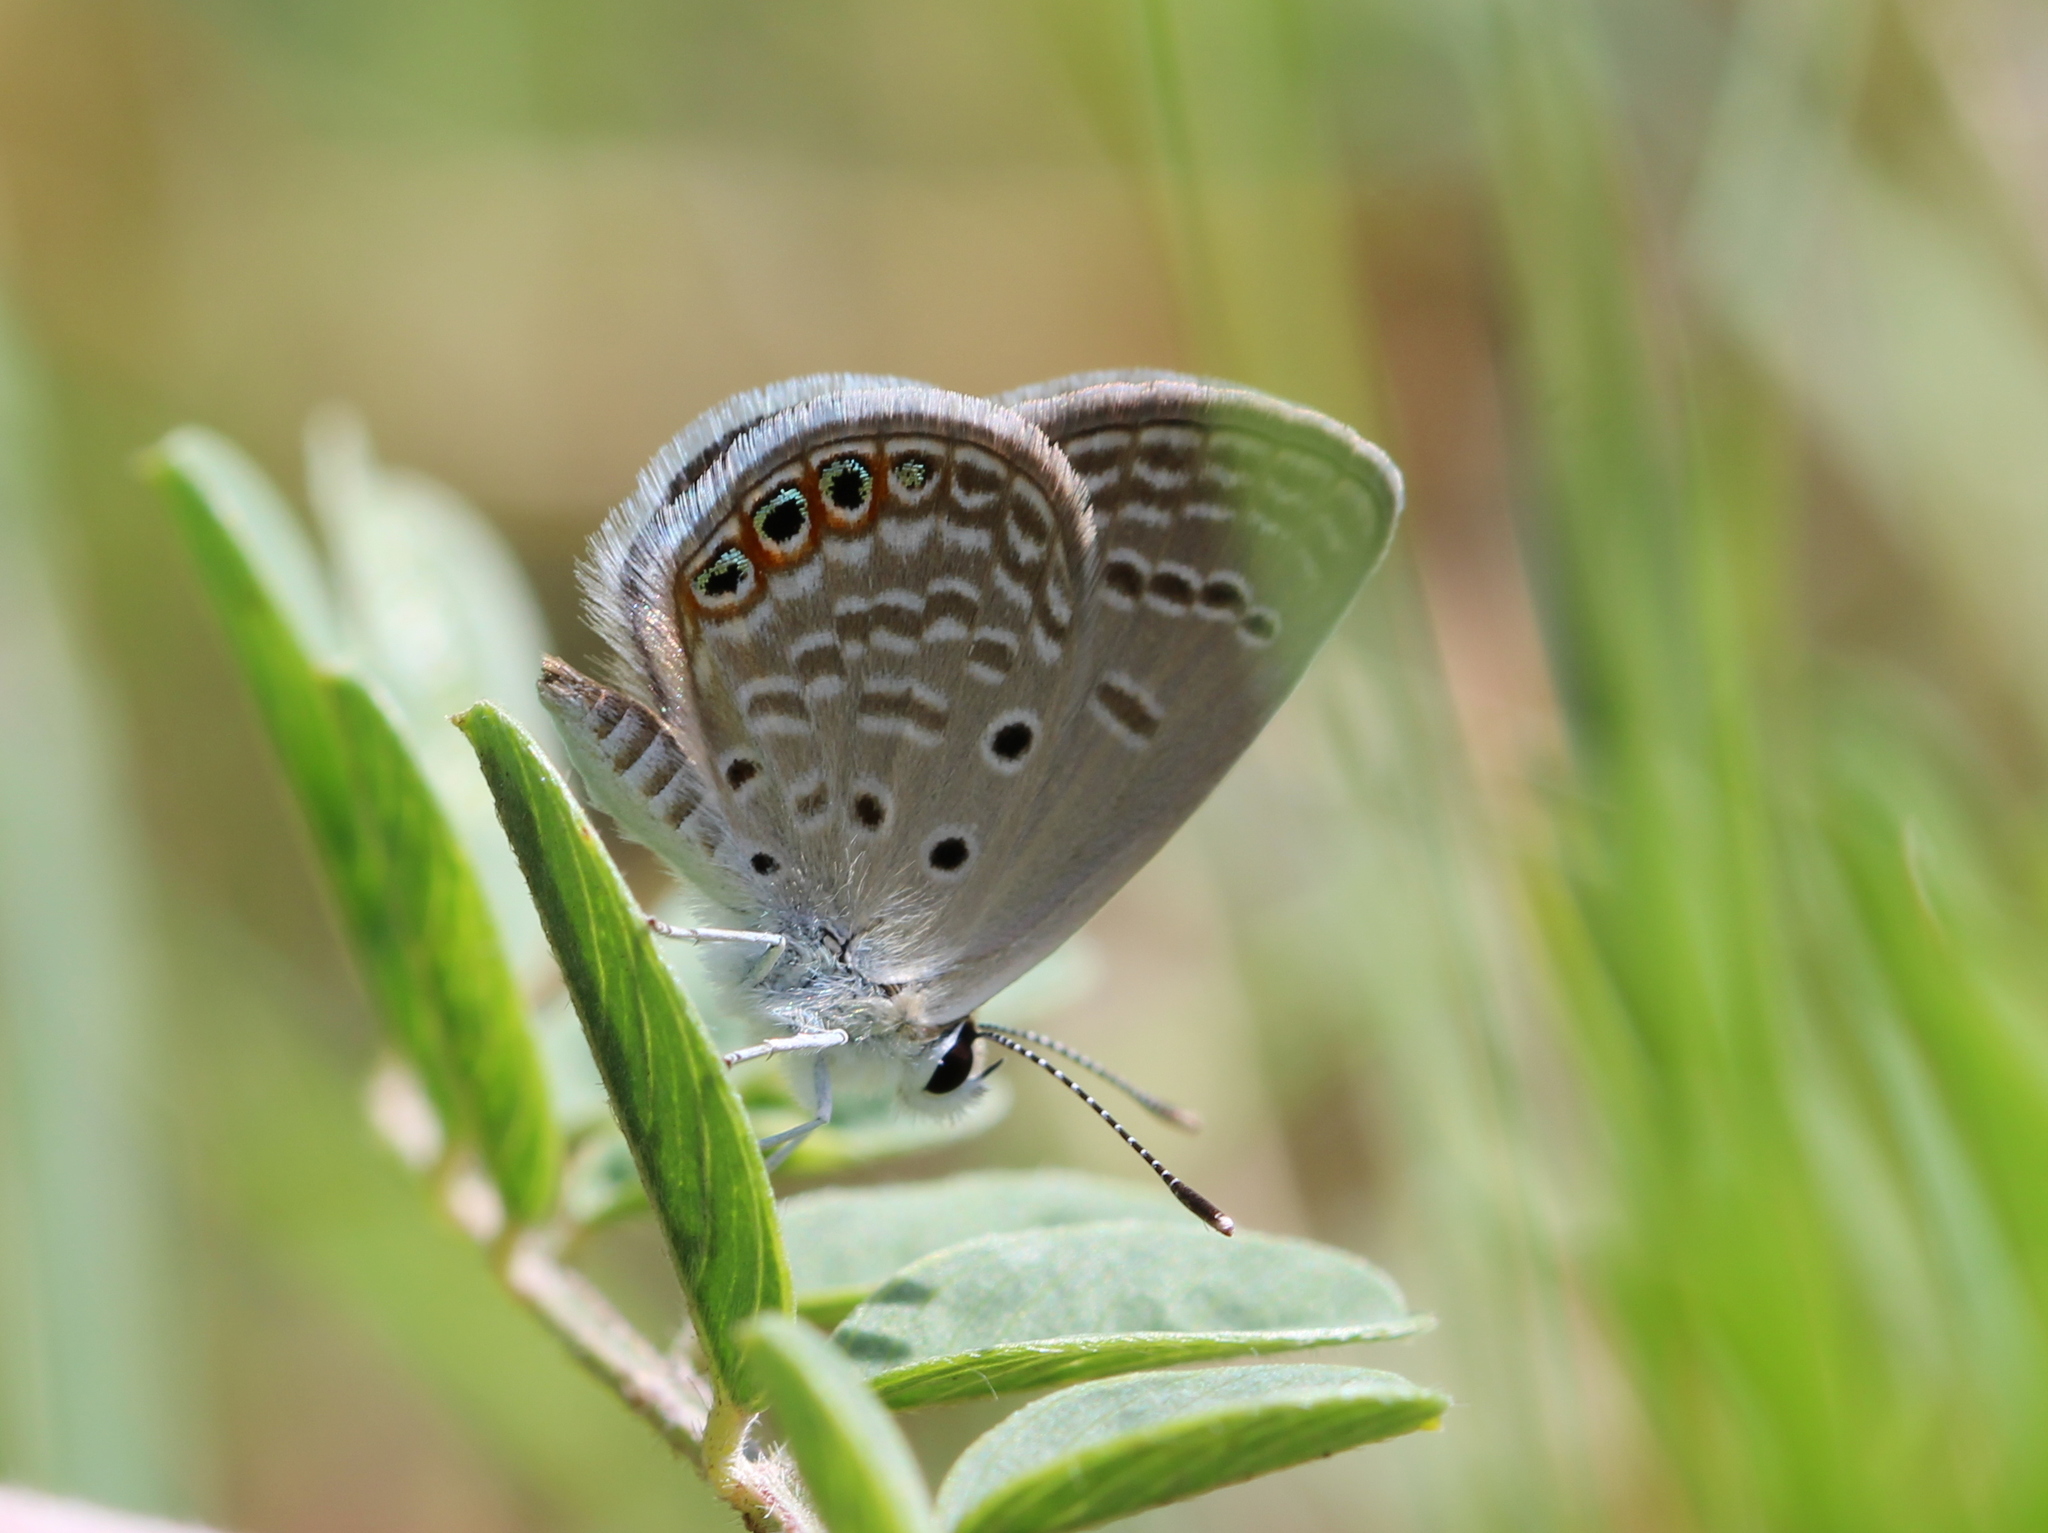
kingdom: Animalia
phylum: Arthropoda
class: Insecta
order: Lepidoptera
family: Lycaenidae
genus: Freyeria
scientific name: Freyeria trochylus
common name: Grass jewel
